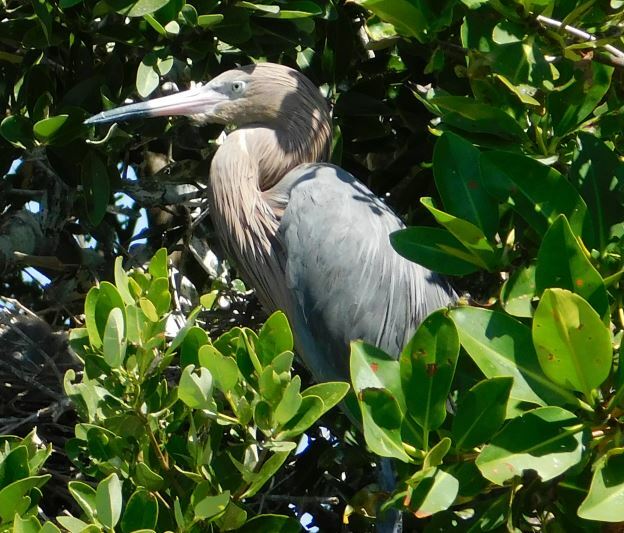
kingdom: Animalia
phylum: Chordata
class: Aves
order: Pelecaniformes
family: Ardeidae
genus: Egretta
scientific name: Egretta rufescens
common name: Reddish egret
